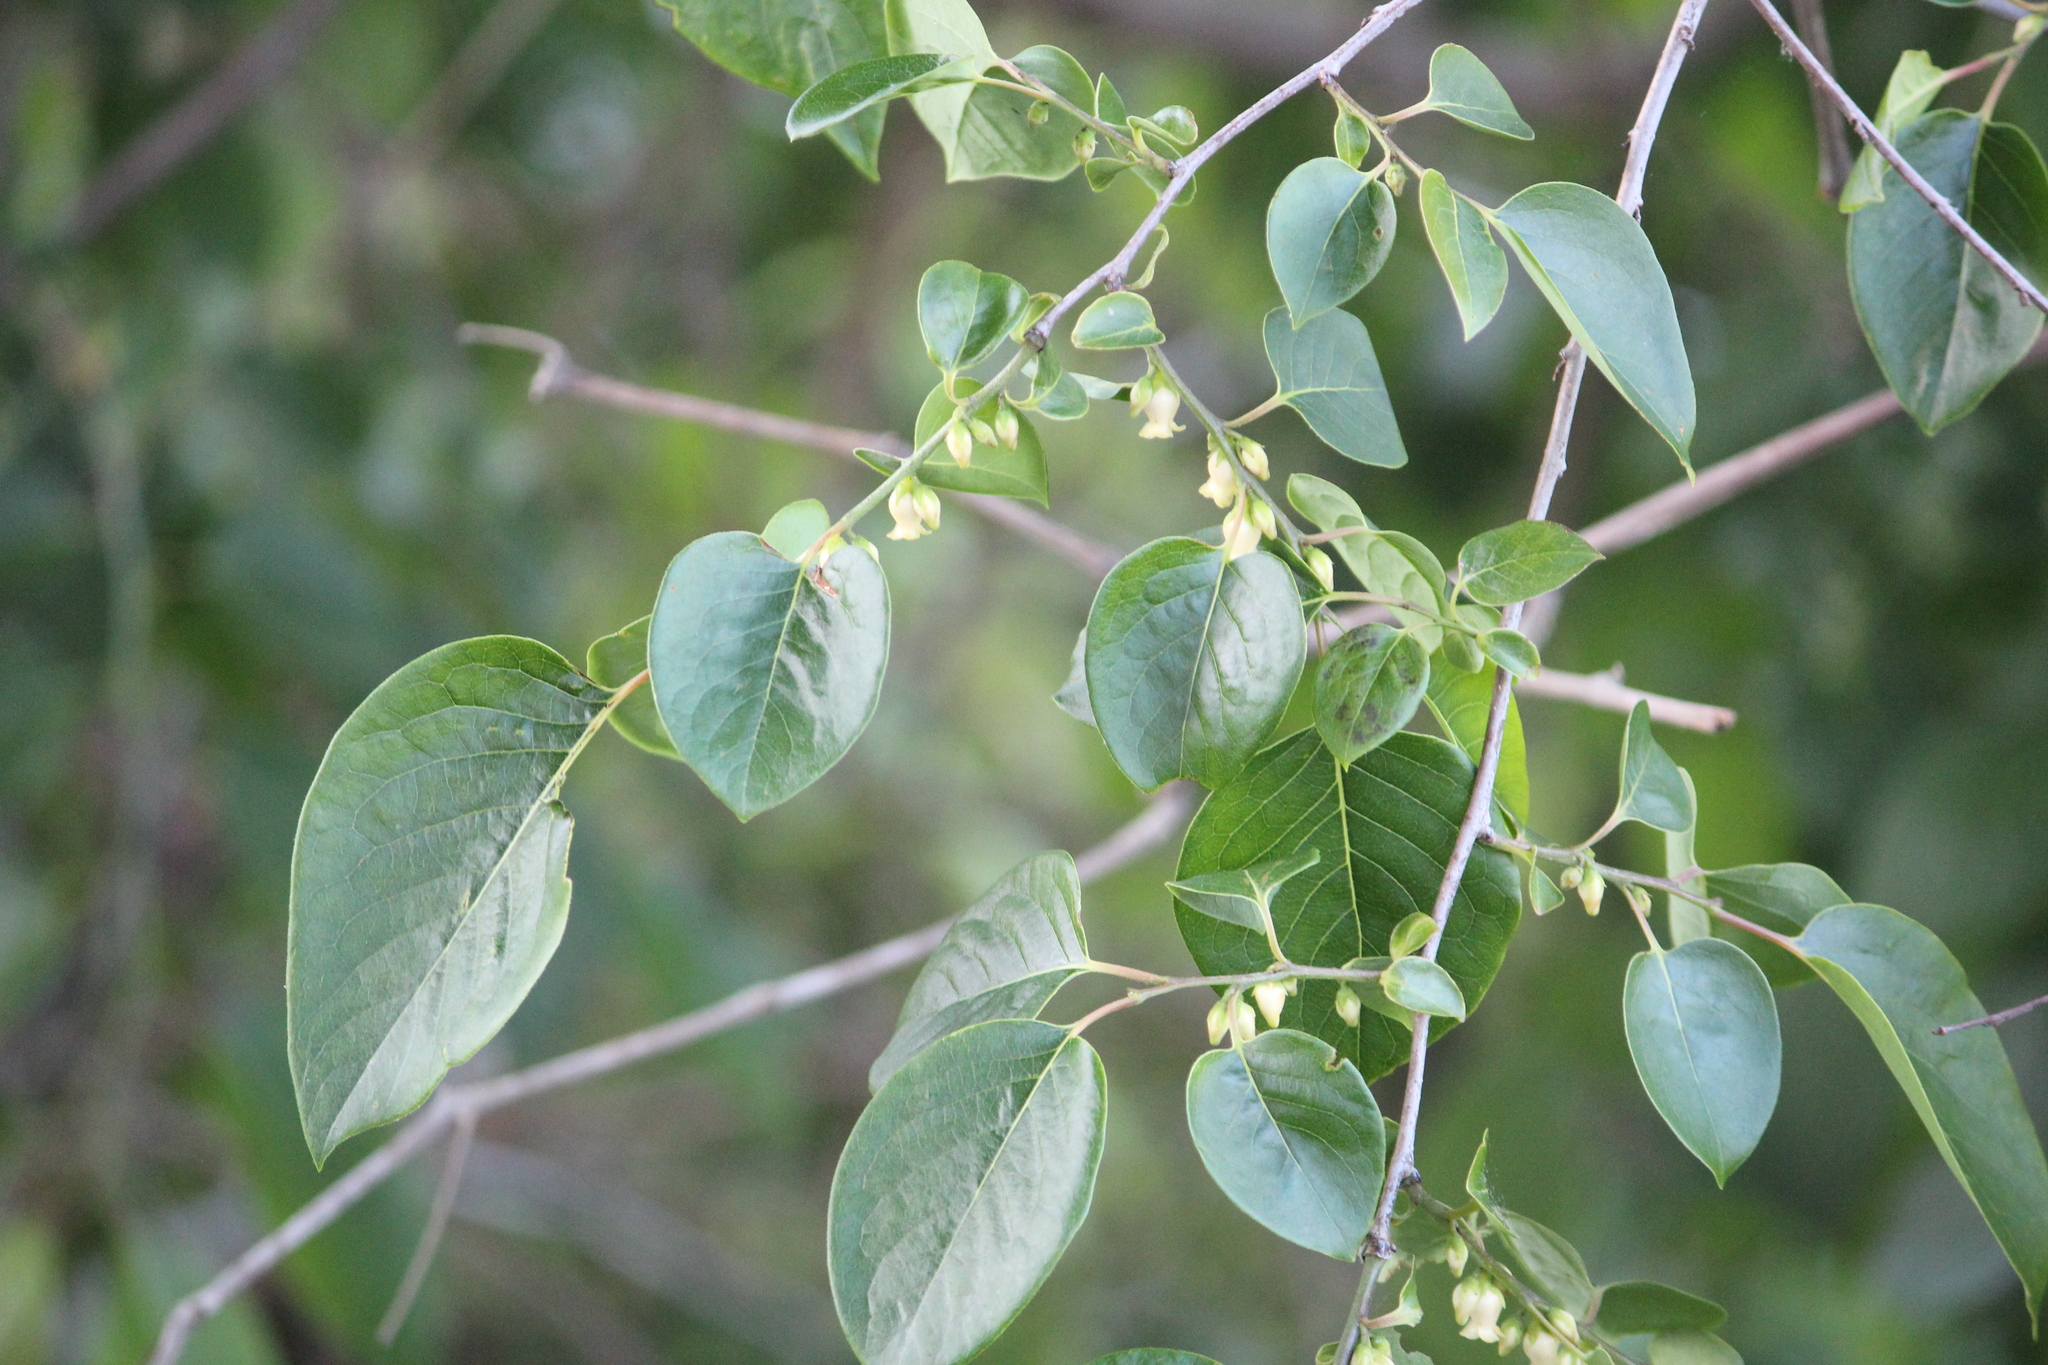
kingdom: Plantae
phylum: Tracheophyta
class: Magnoliopsida
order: Ericales
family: Ebenaceae
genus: Diospyros
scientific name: Diospyros virginiana
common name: Persimmon
